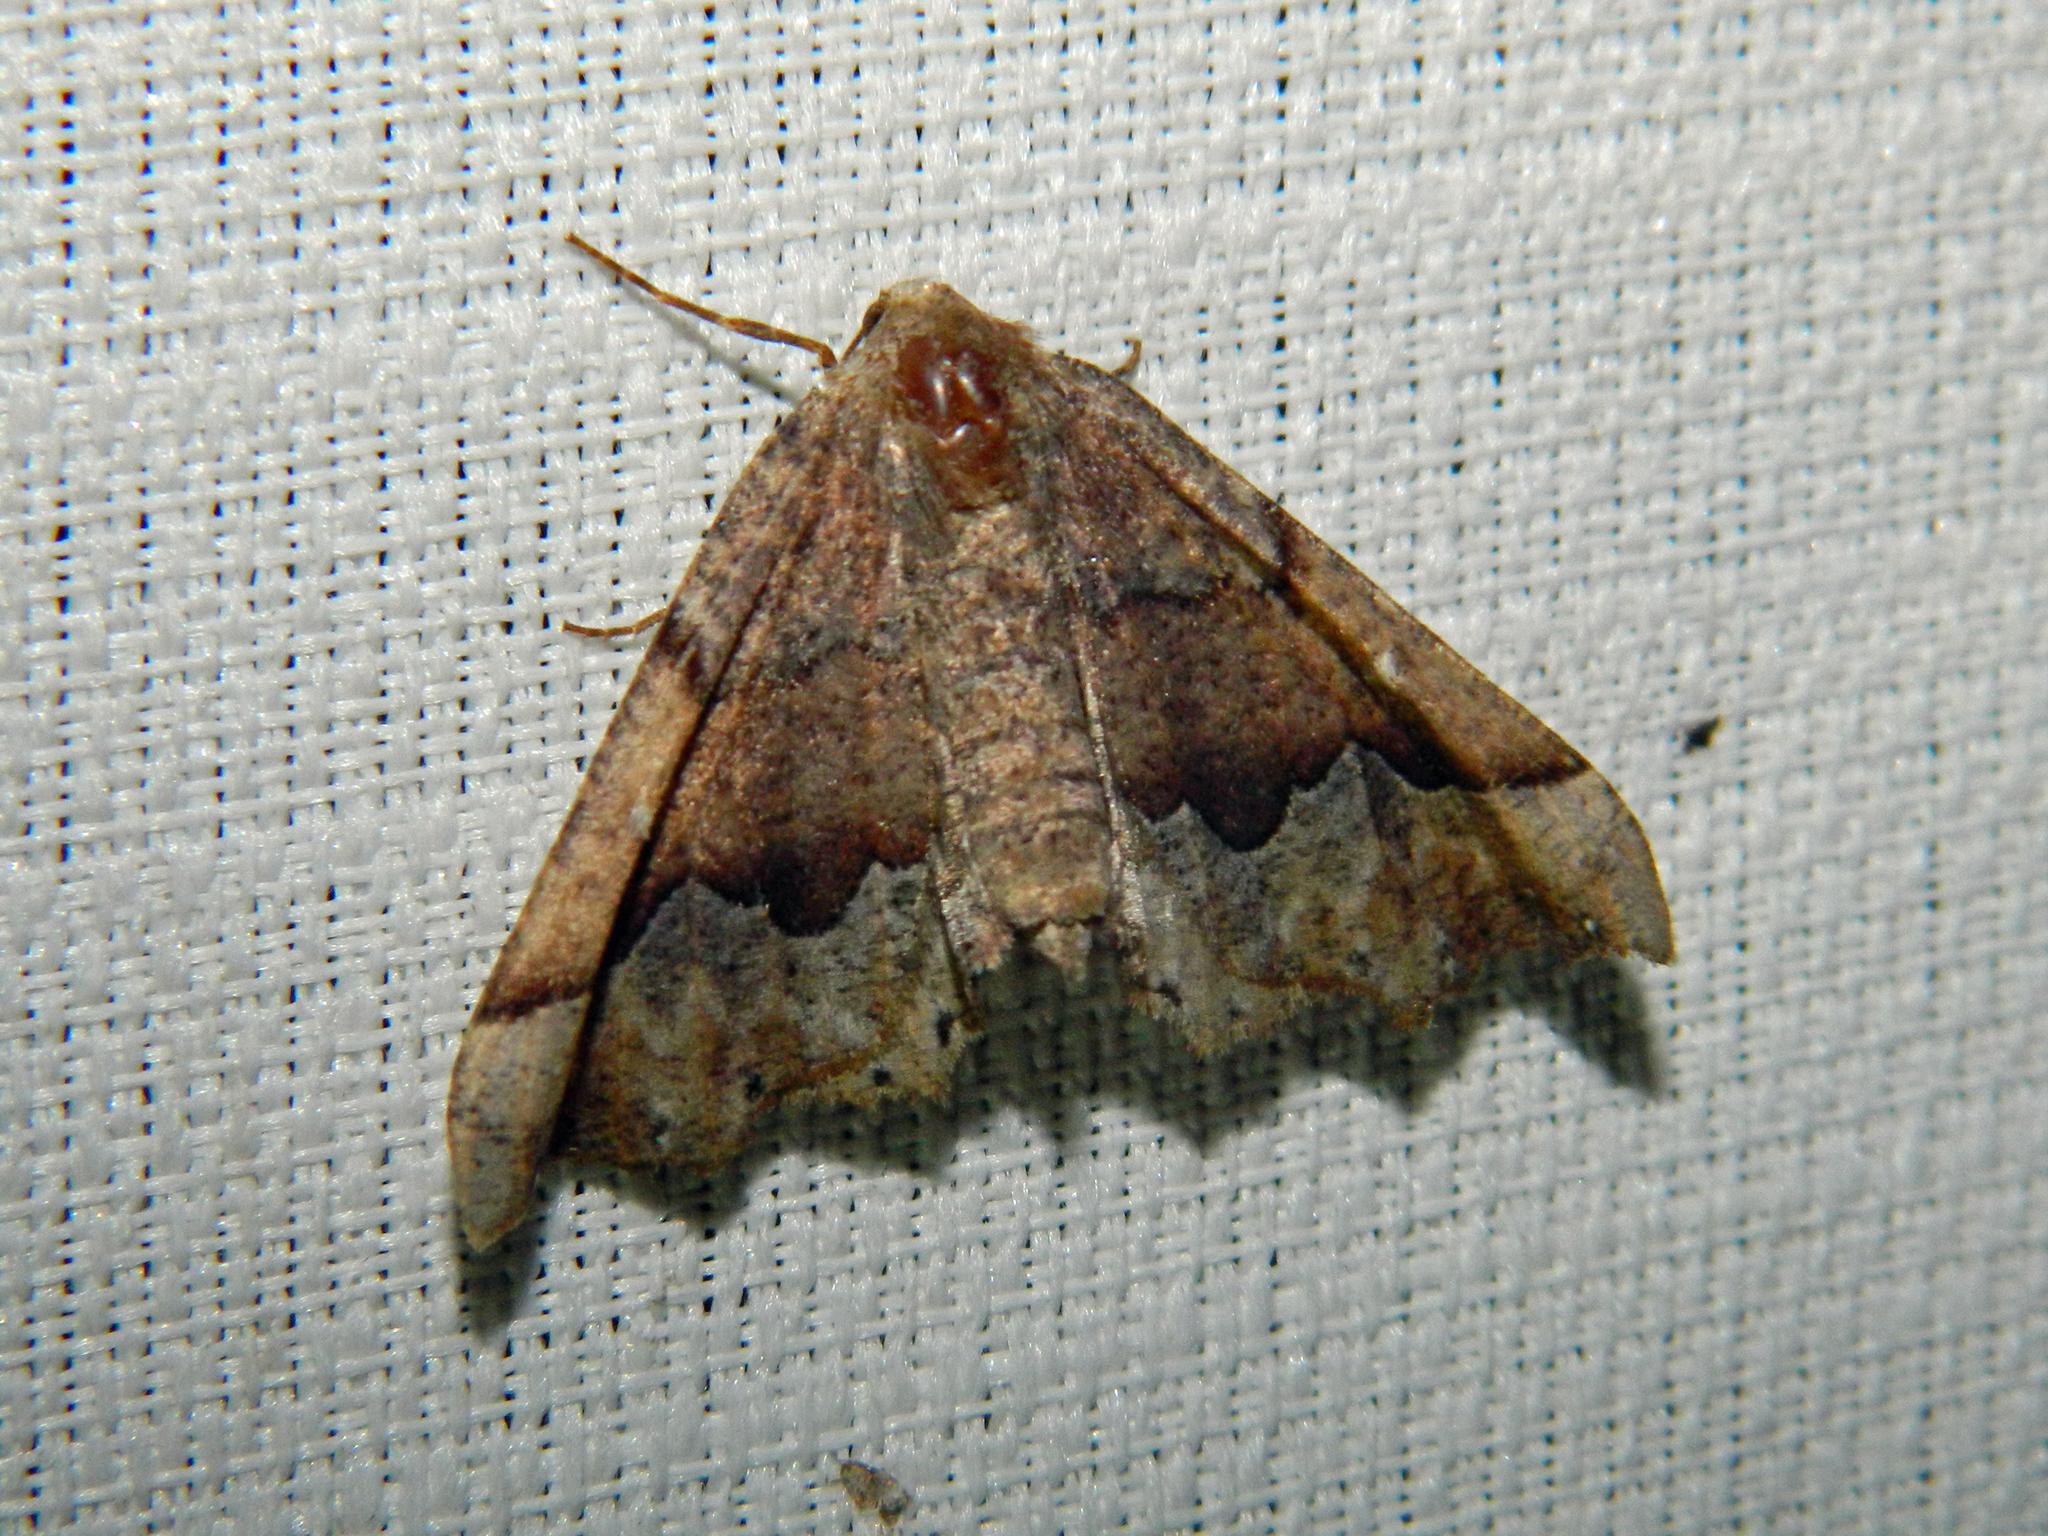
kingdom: Animalia
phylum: Arthropoda
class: Insecta
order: Lepidoptera
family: Geometridae
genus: Pero
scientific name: Pero morrisonaria
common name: Morrison's pero
